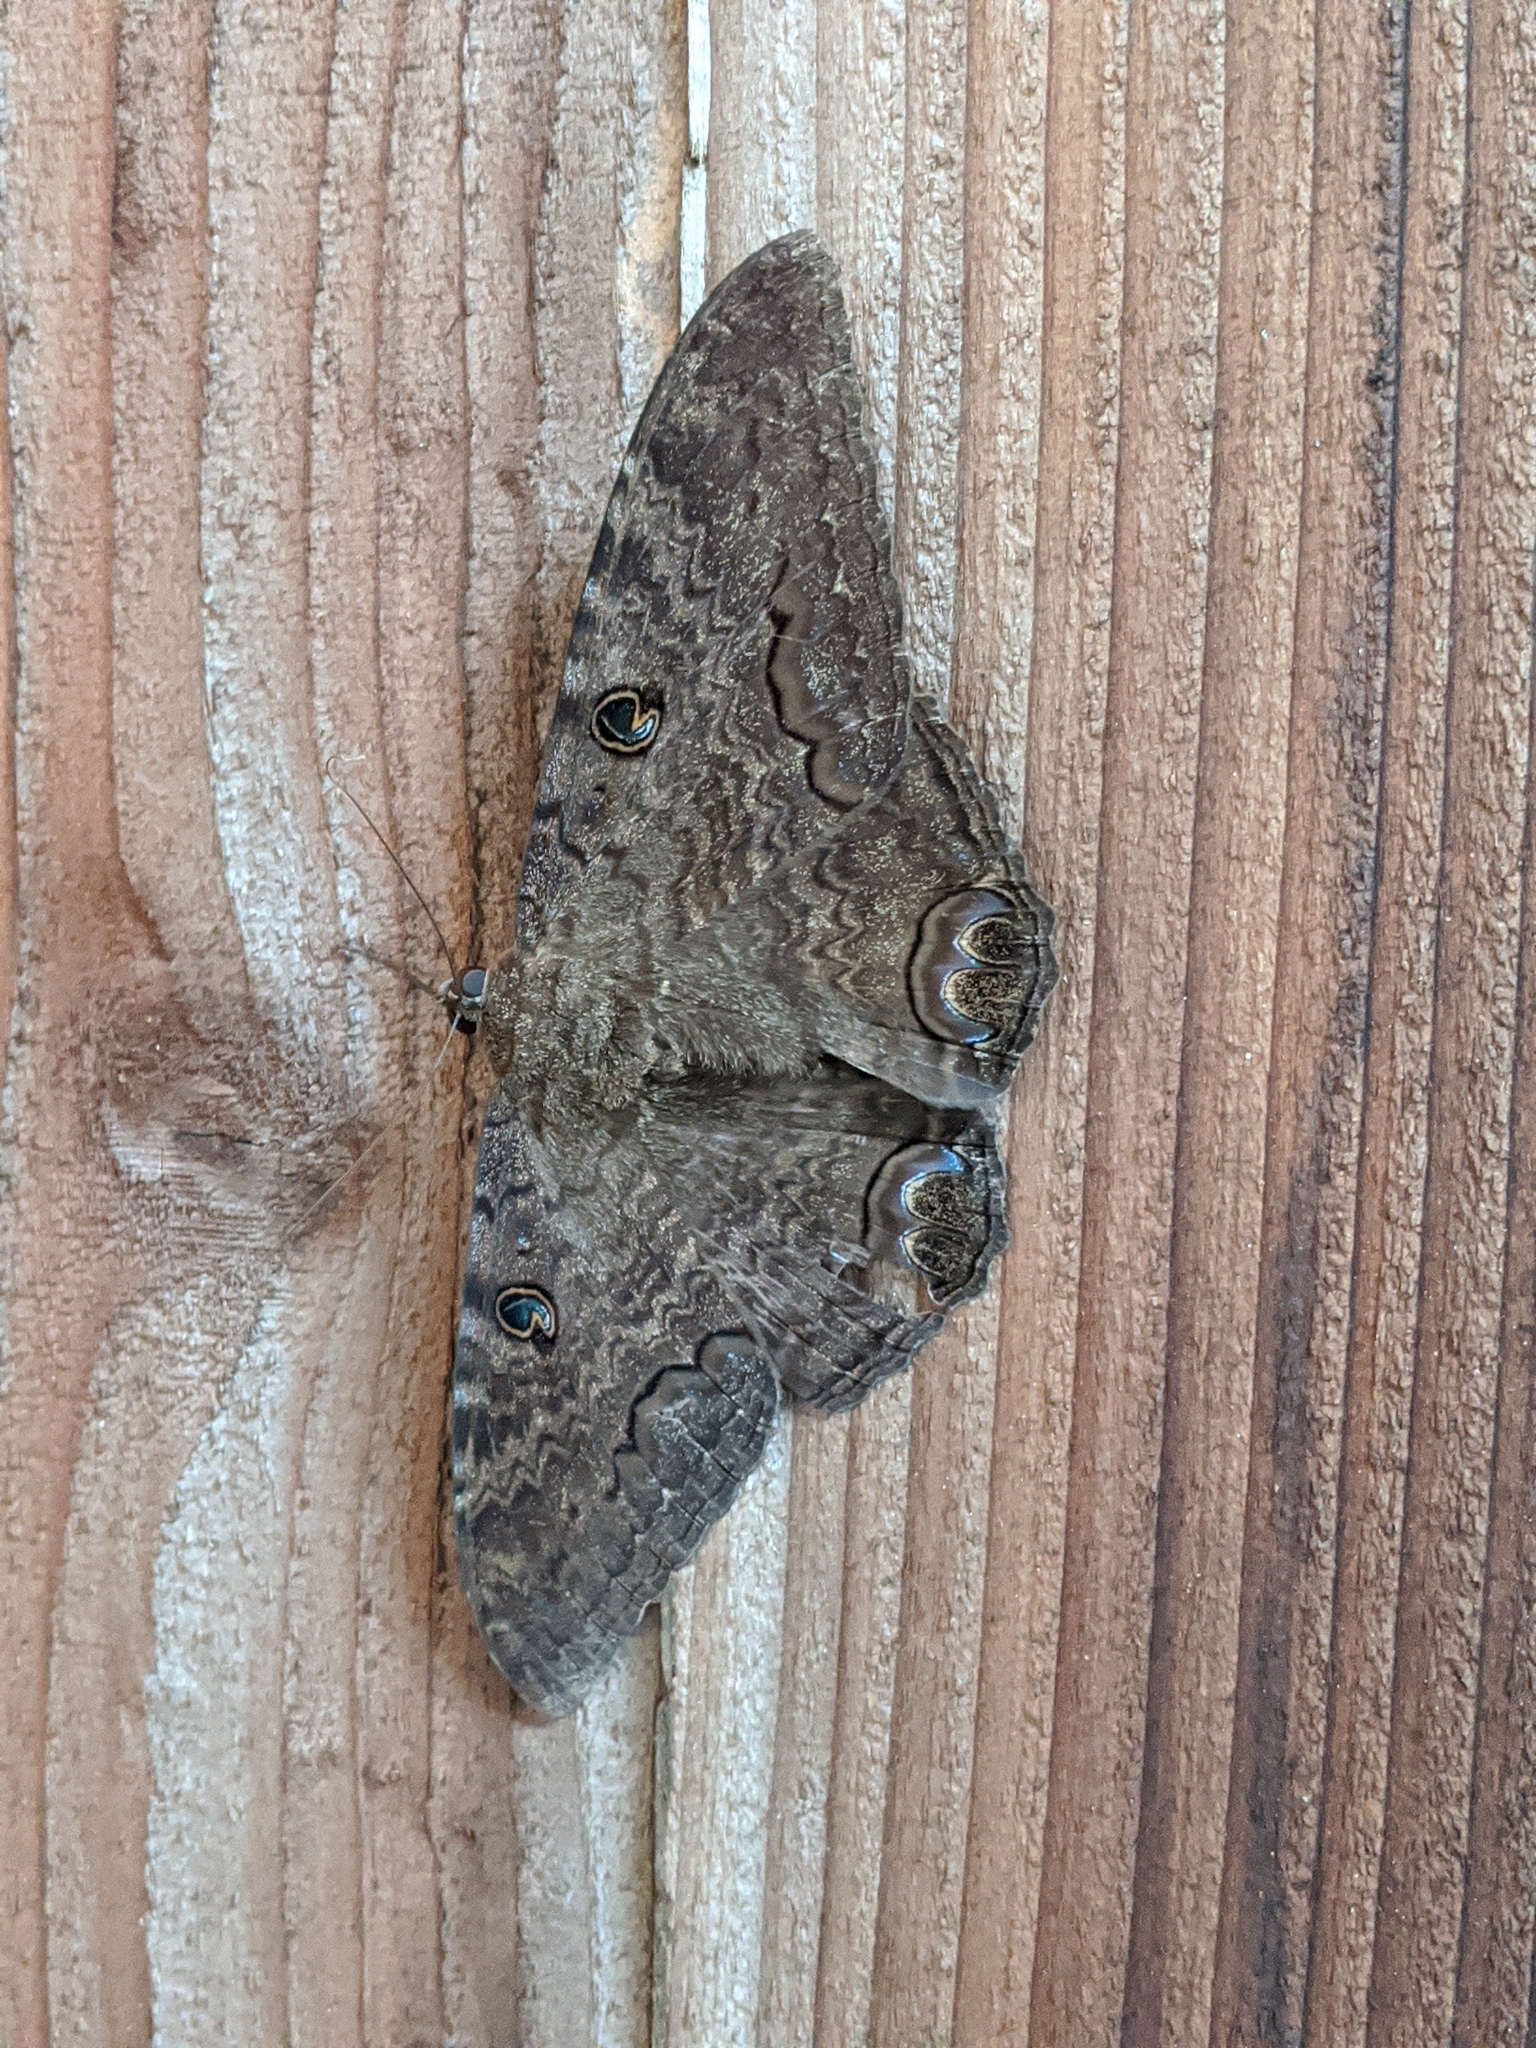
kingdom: Animalia
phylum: Arthropoda
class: Insecta
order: Lepidoptera
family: Erebidae
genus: Ascalapha
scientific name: Ascalapha odorata
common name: Black witch
